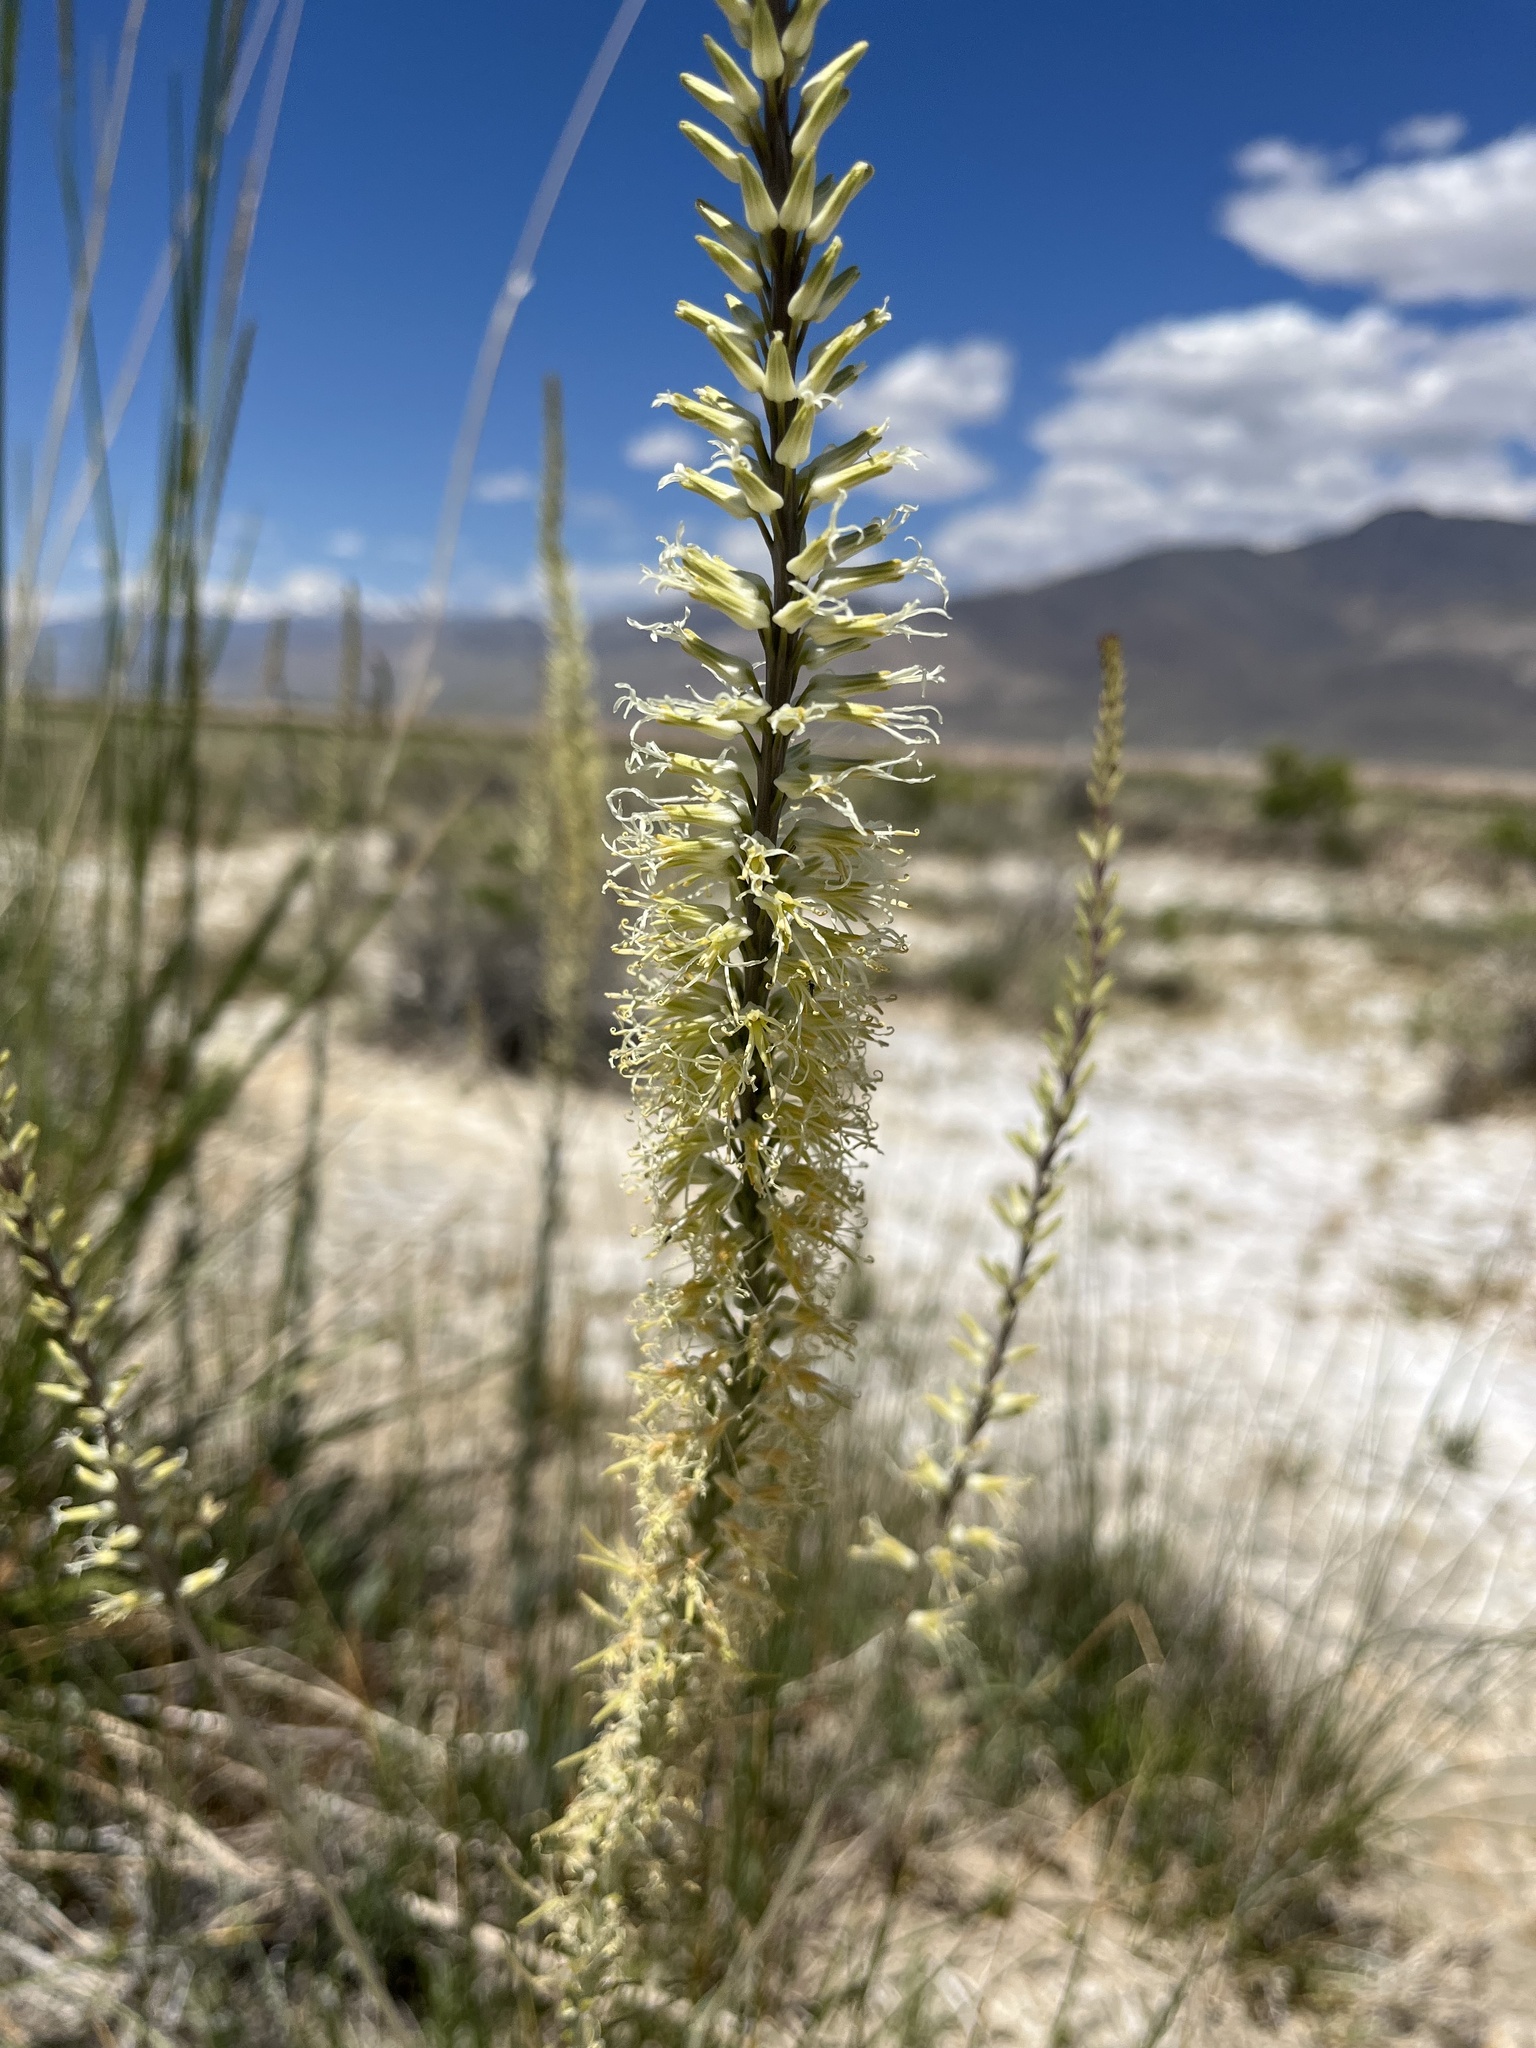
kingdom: Plantae
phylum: Tracheophyta
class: Magnoliopsida
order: Brassicales
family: Brassicaceae
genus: Thelypodium
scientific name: Thelypodium crispum
